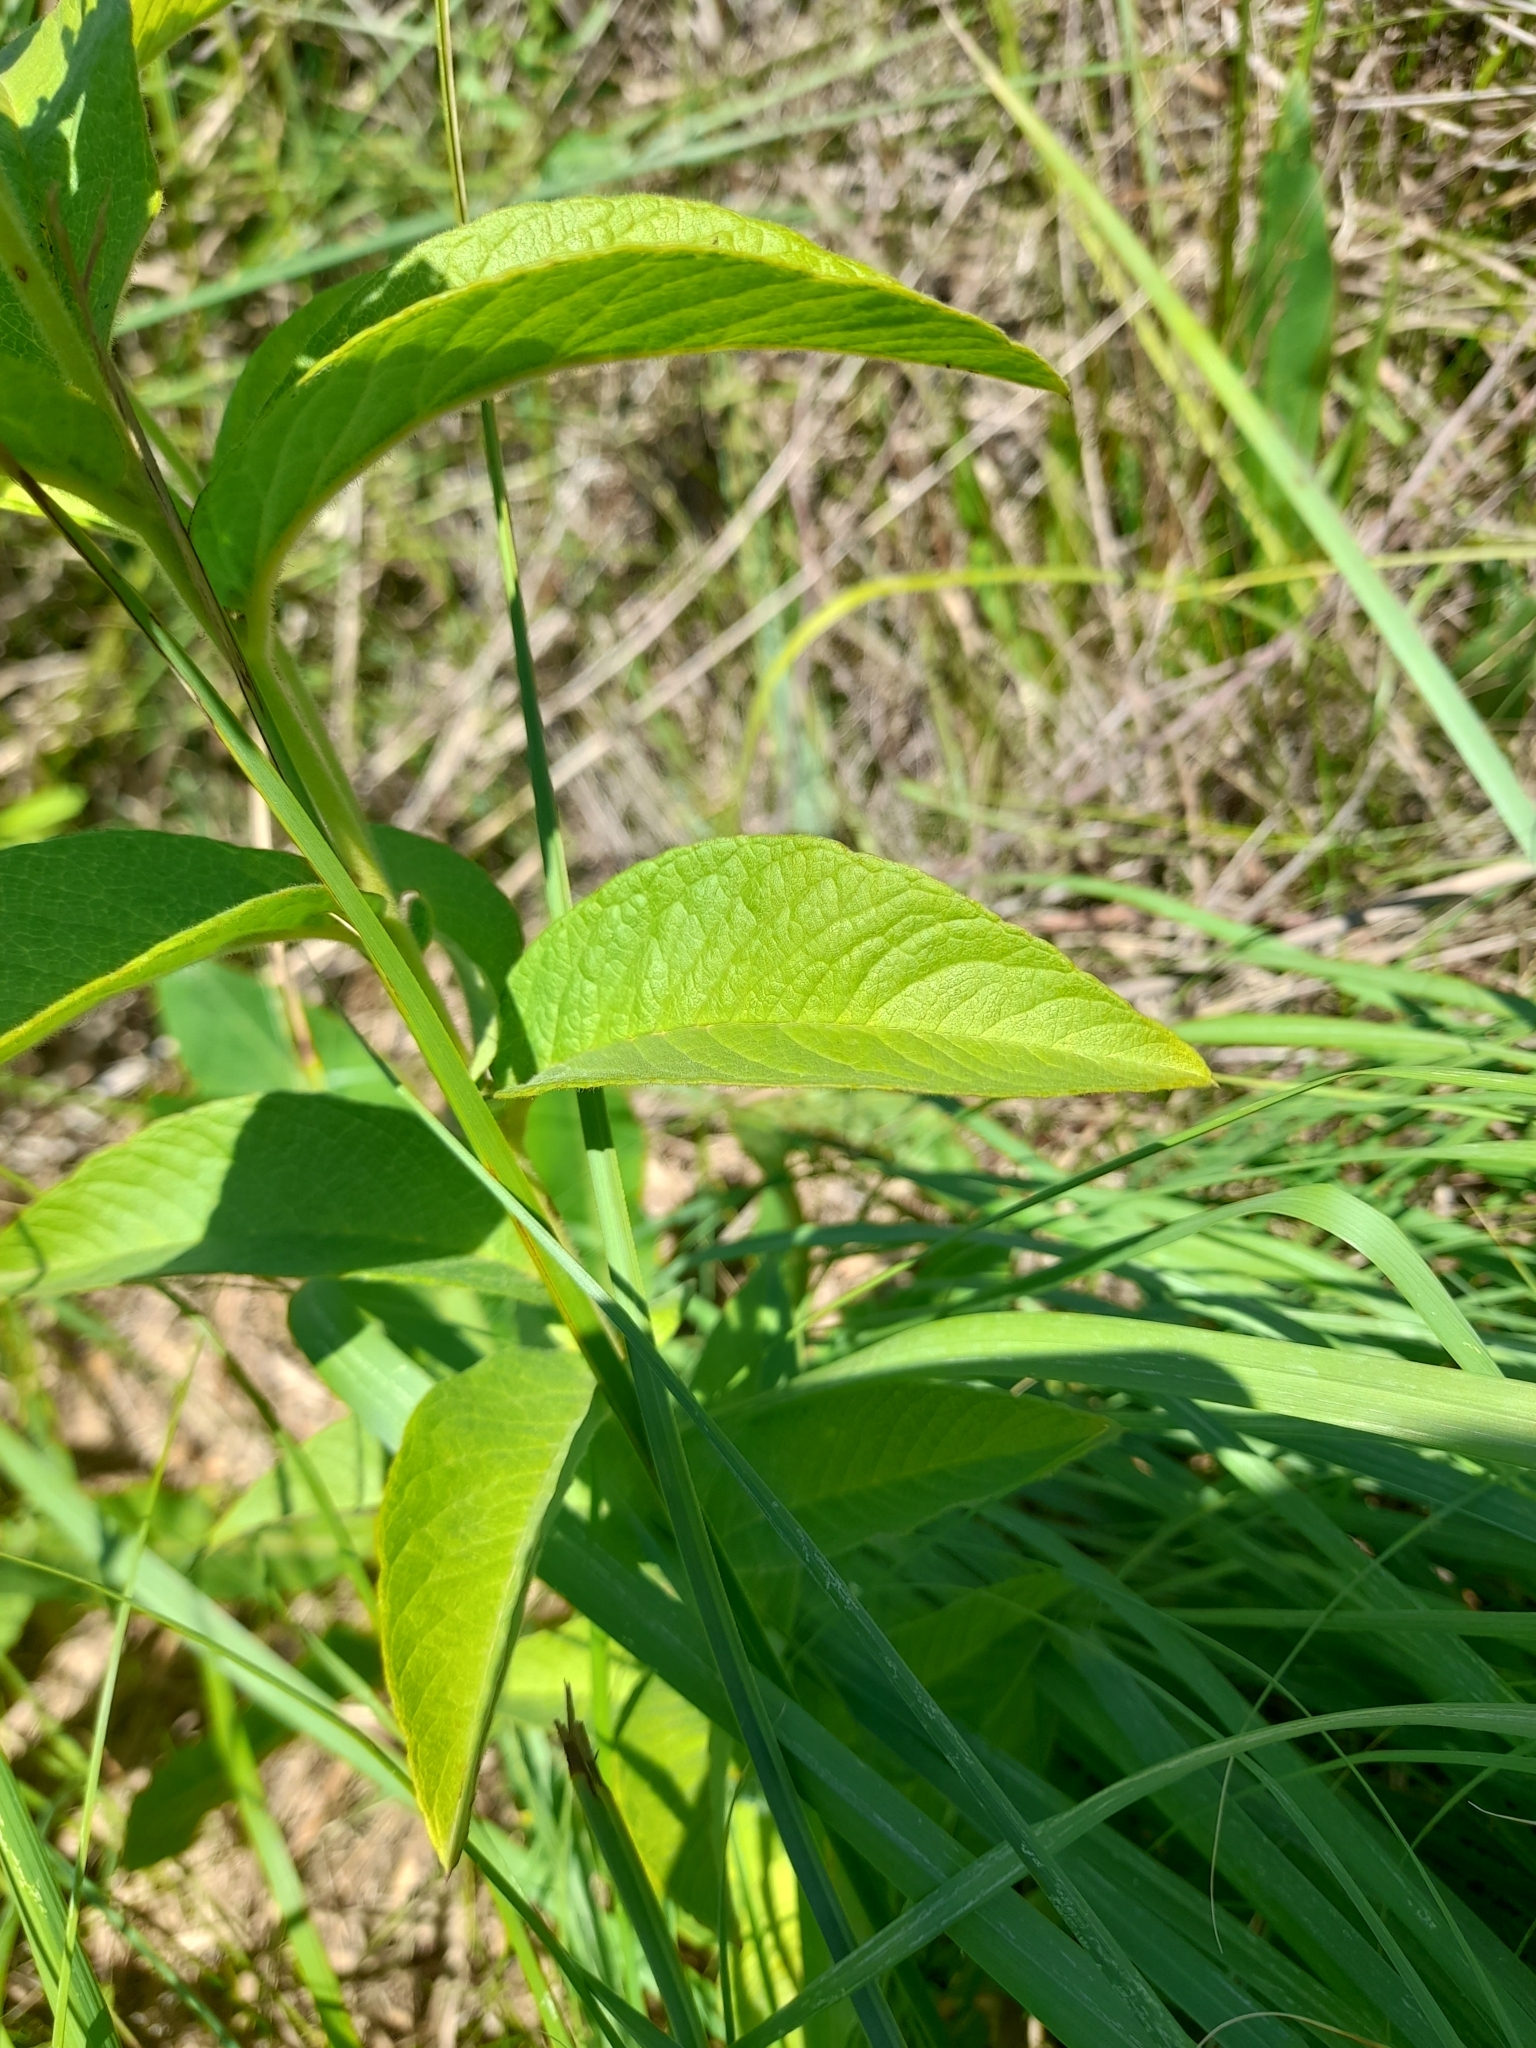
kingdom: Plantae
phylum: Tracheophyta
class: Magnoliopsida
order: Ericales
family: Primulaceae
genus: Lysimachia
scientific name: Lysimachia vulgaris
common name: Yellow loosestrife
